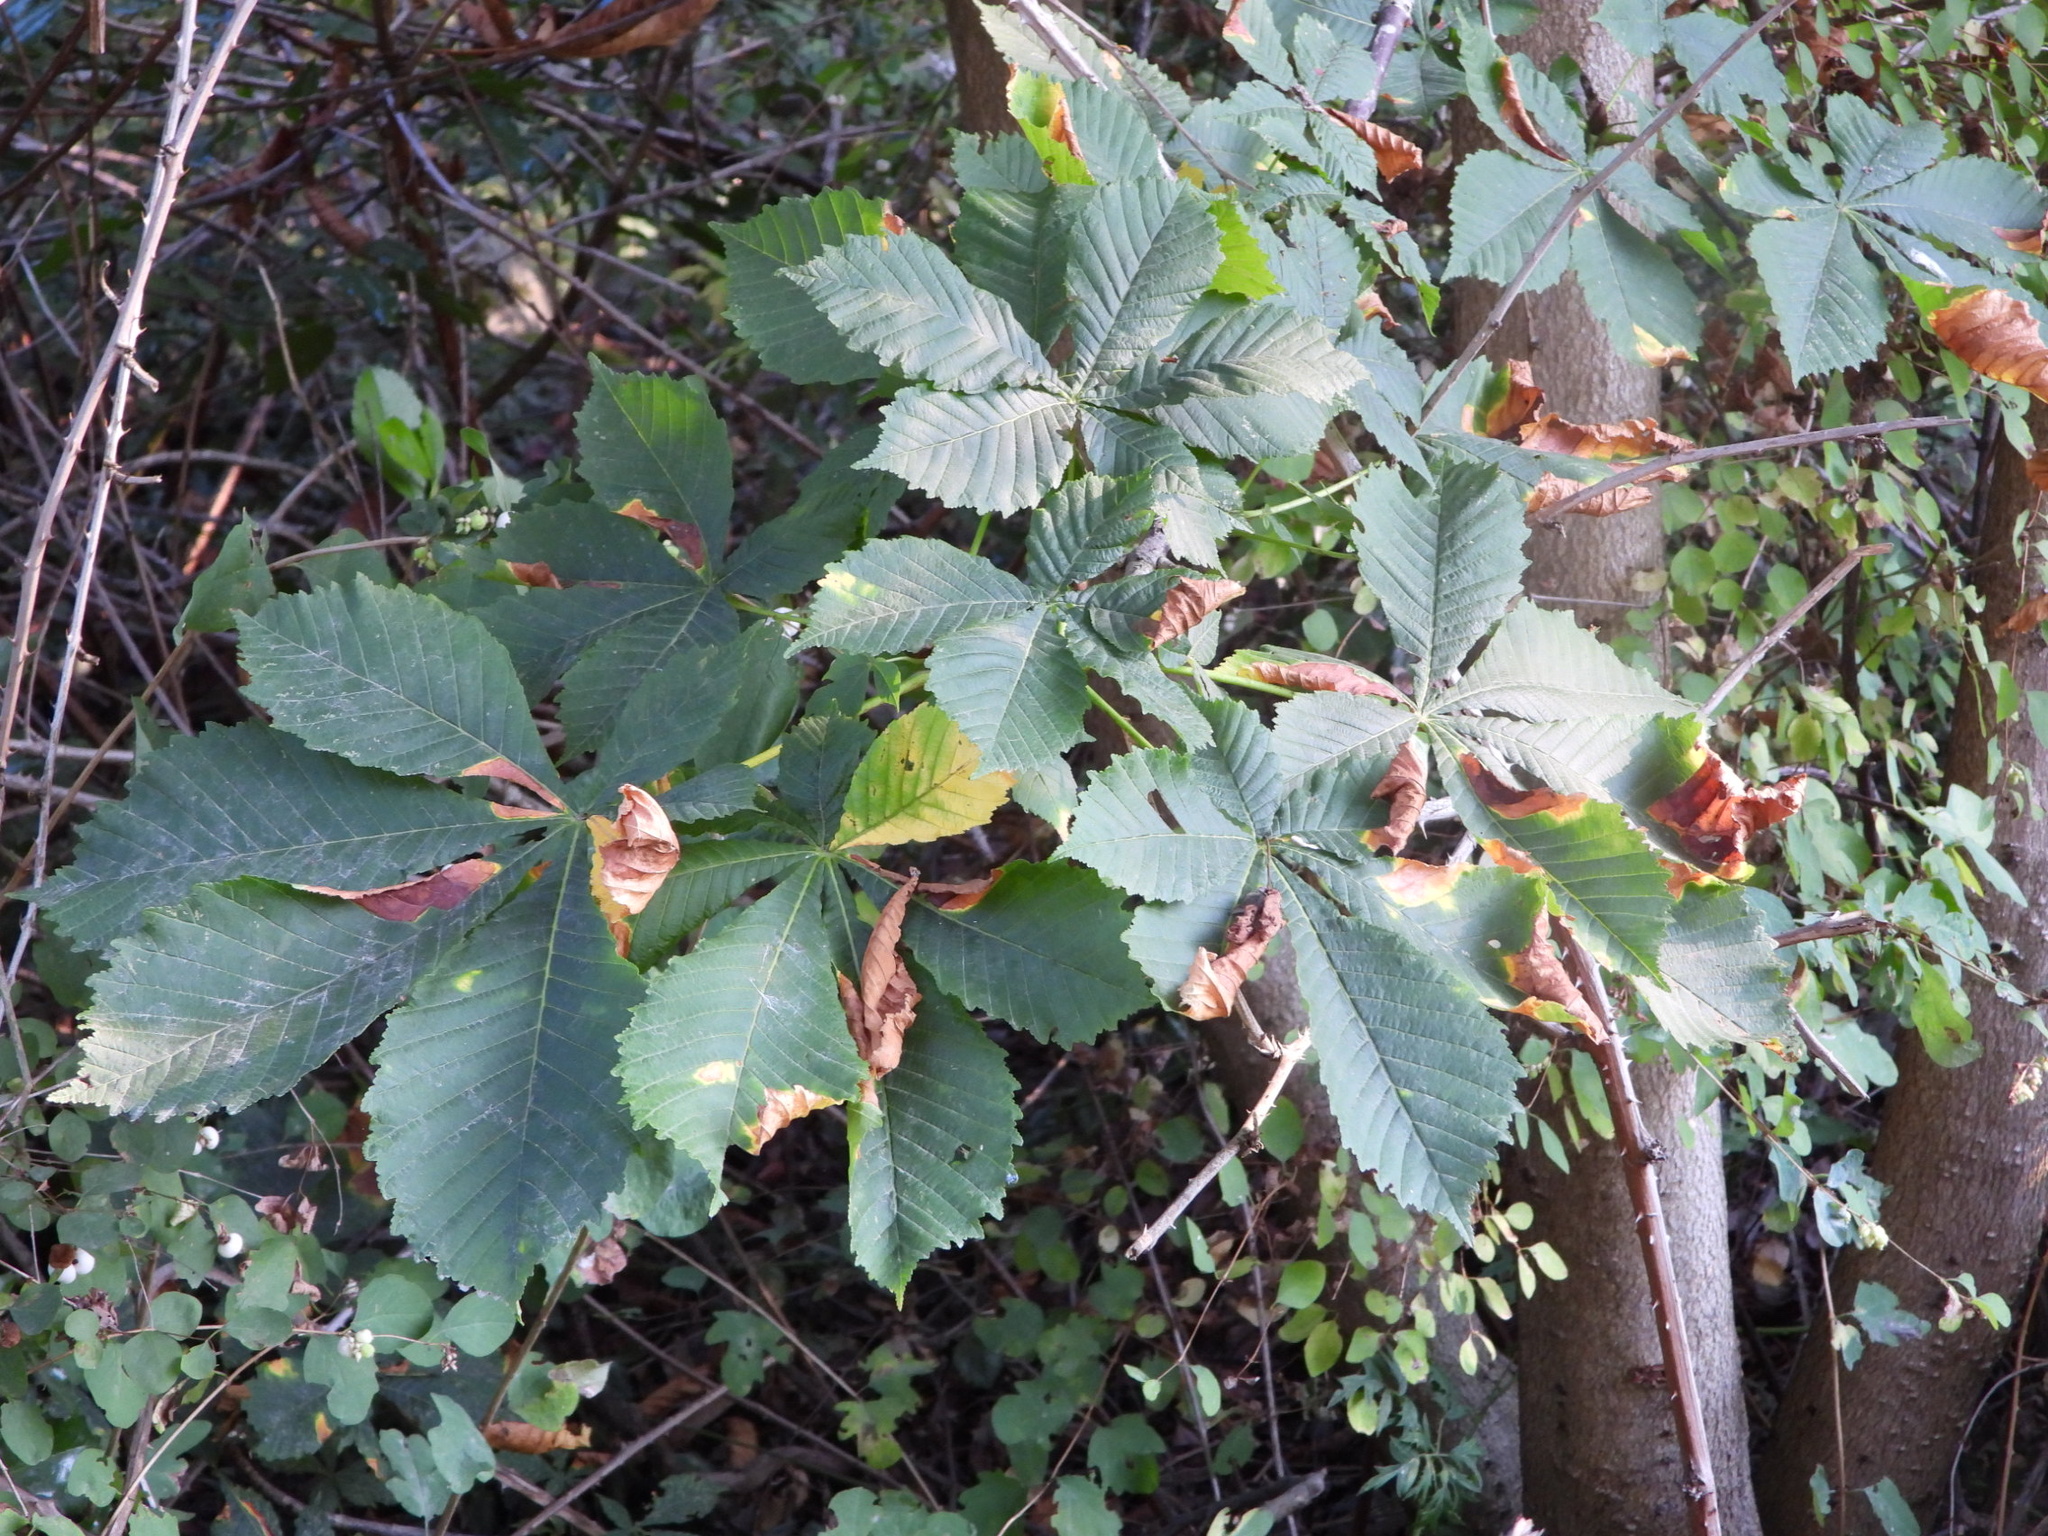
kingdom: Plantae
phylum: Tracheophyta
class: Magnoliopsida
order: Sapindales
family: Sapindaceae
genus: Aesculus
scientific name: Aesculus hippocastanum
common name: Horse-chestnut
